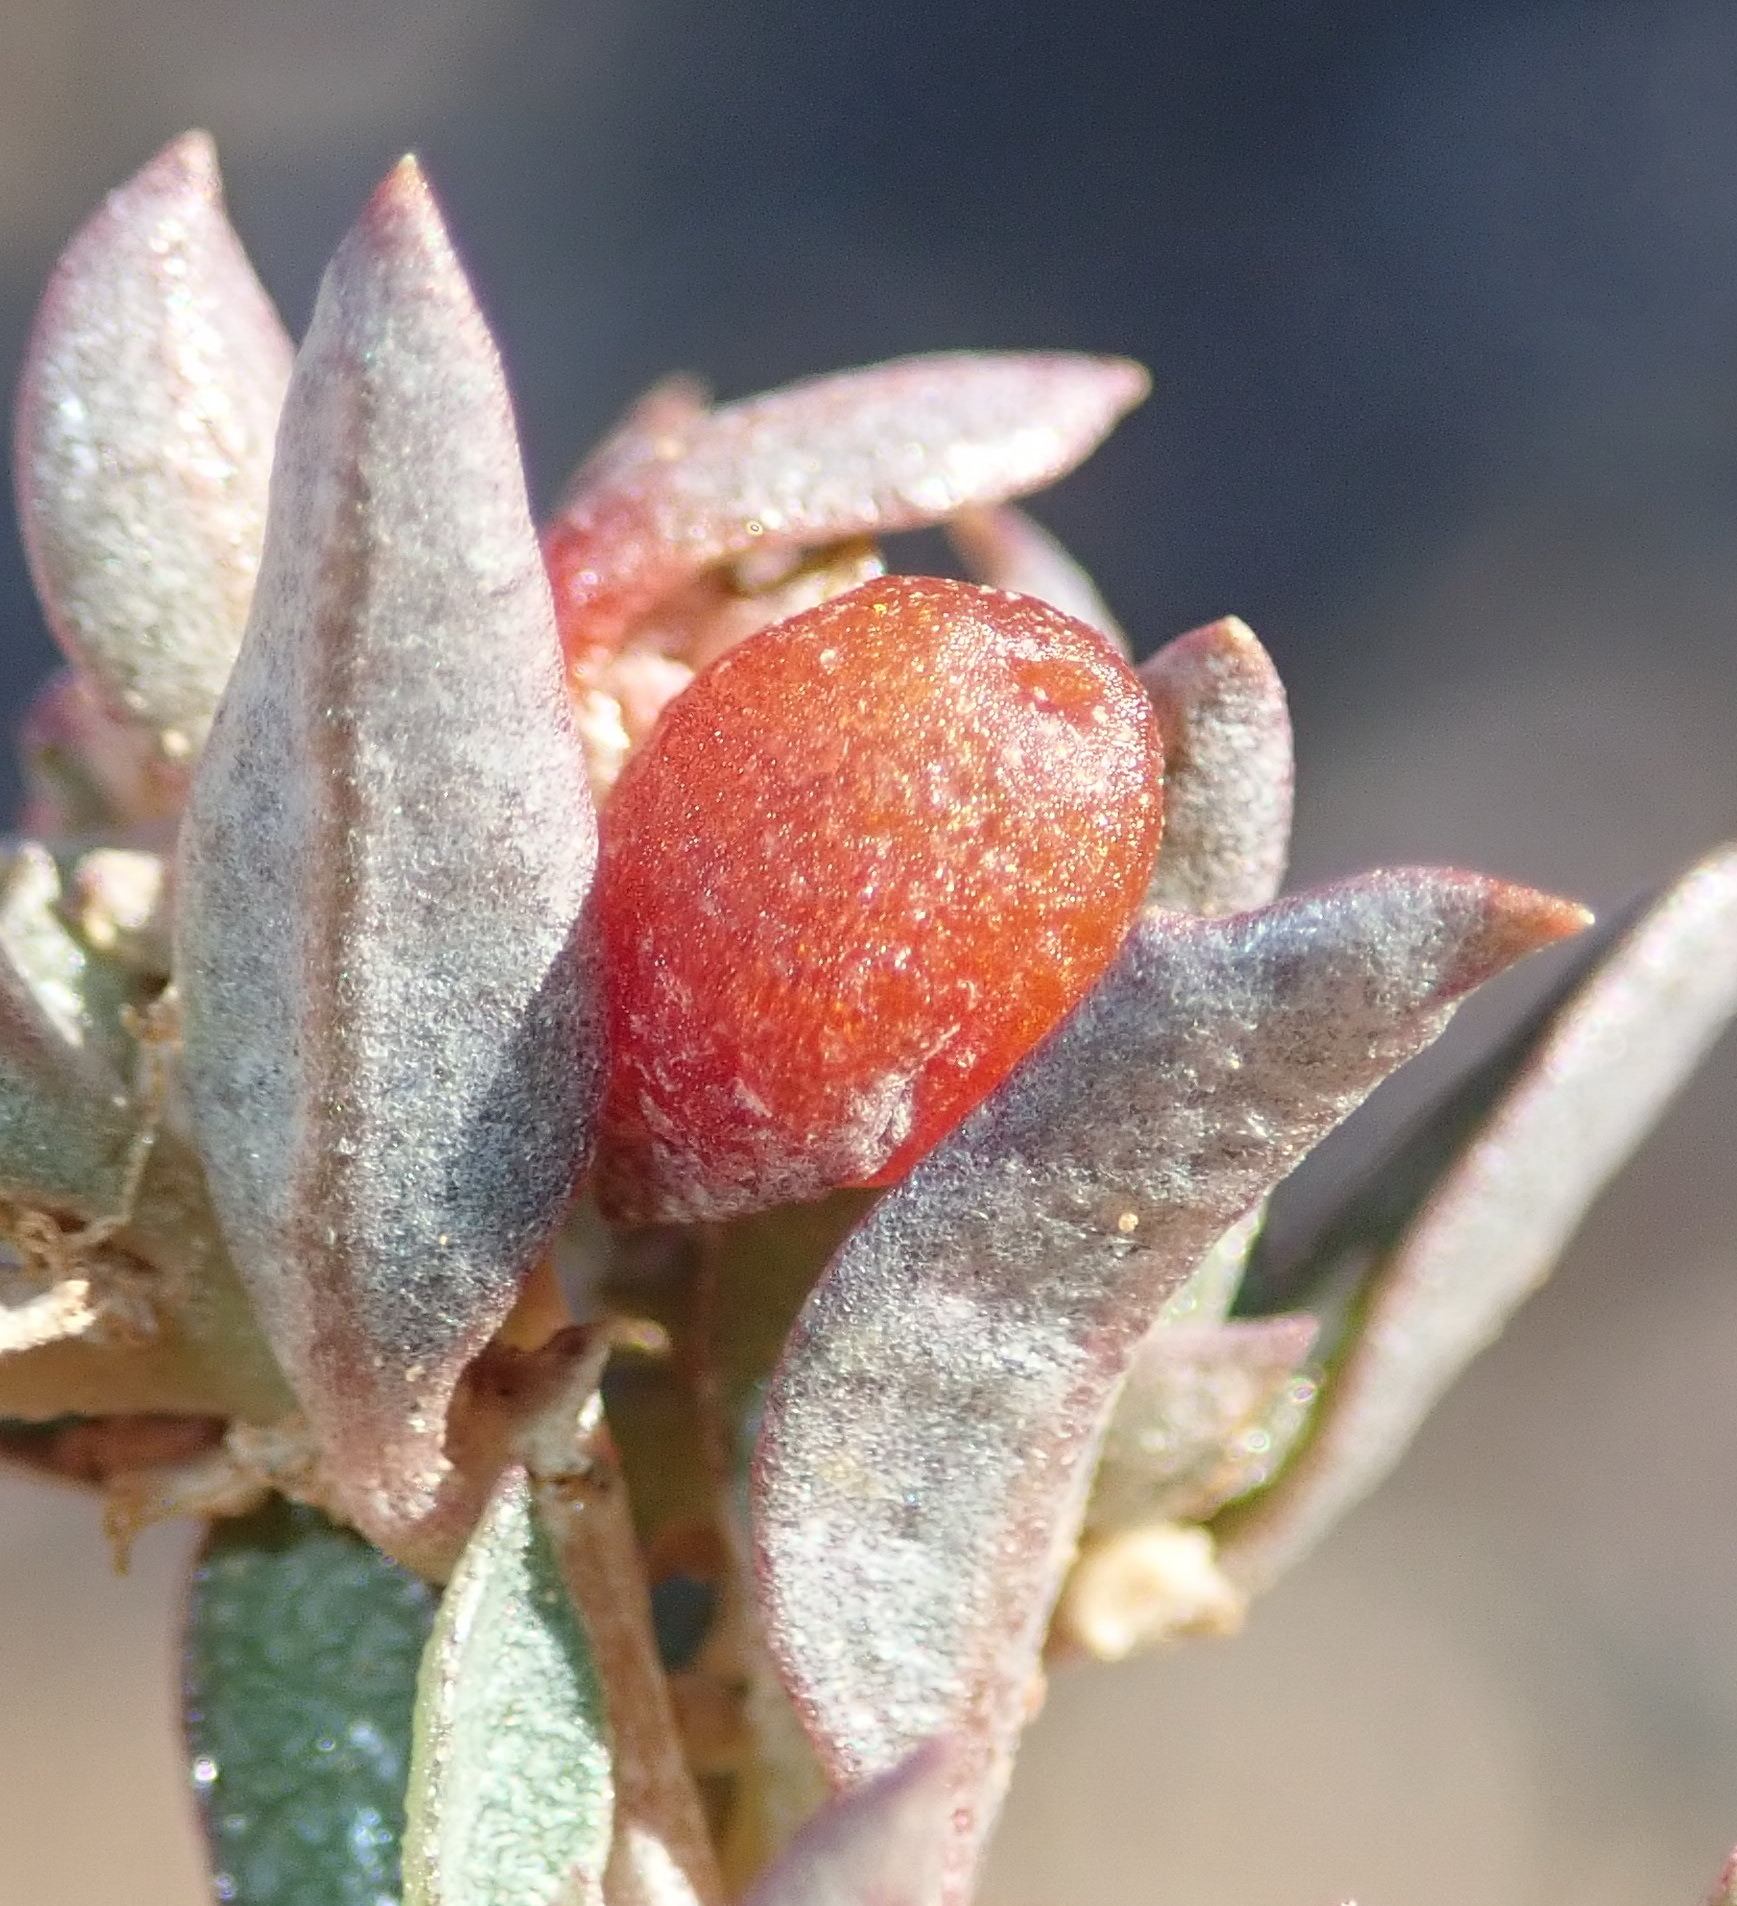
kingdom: Plantae
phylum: Tracheophyta
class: Magnoliopsida
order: Caryophyllales
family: Amaranthaceae
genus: Atriplex
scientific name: Atriplex semibaccata
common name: Australian saltbush
